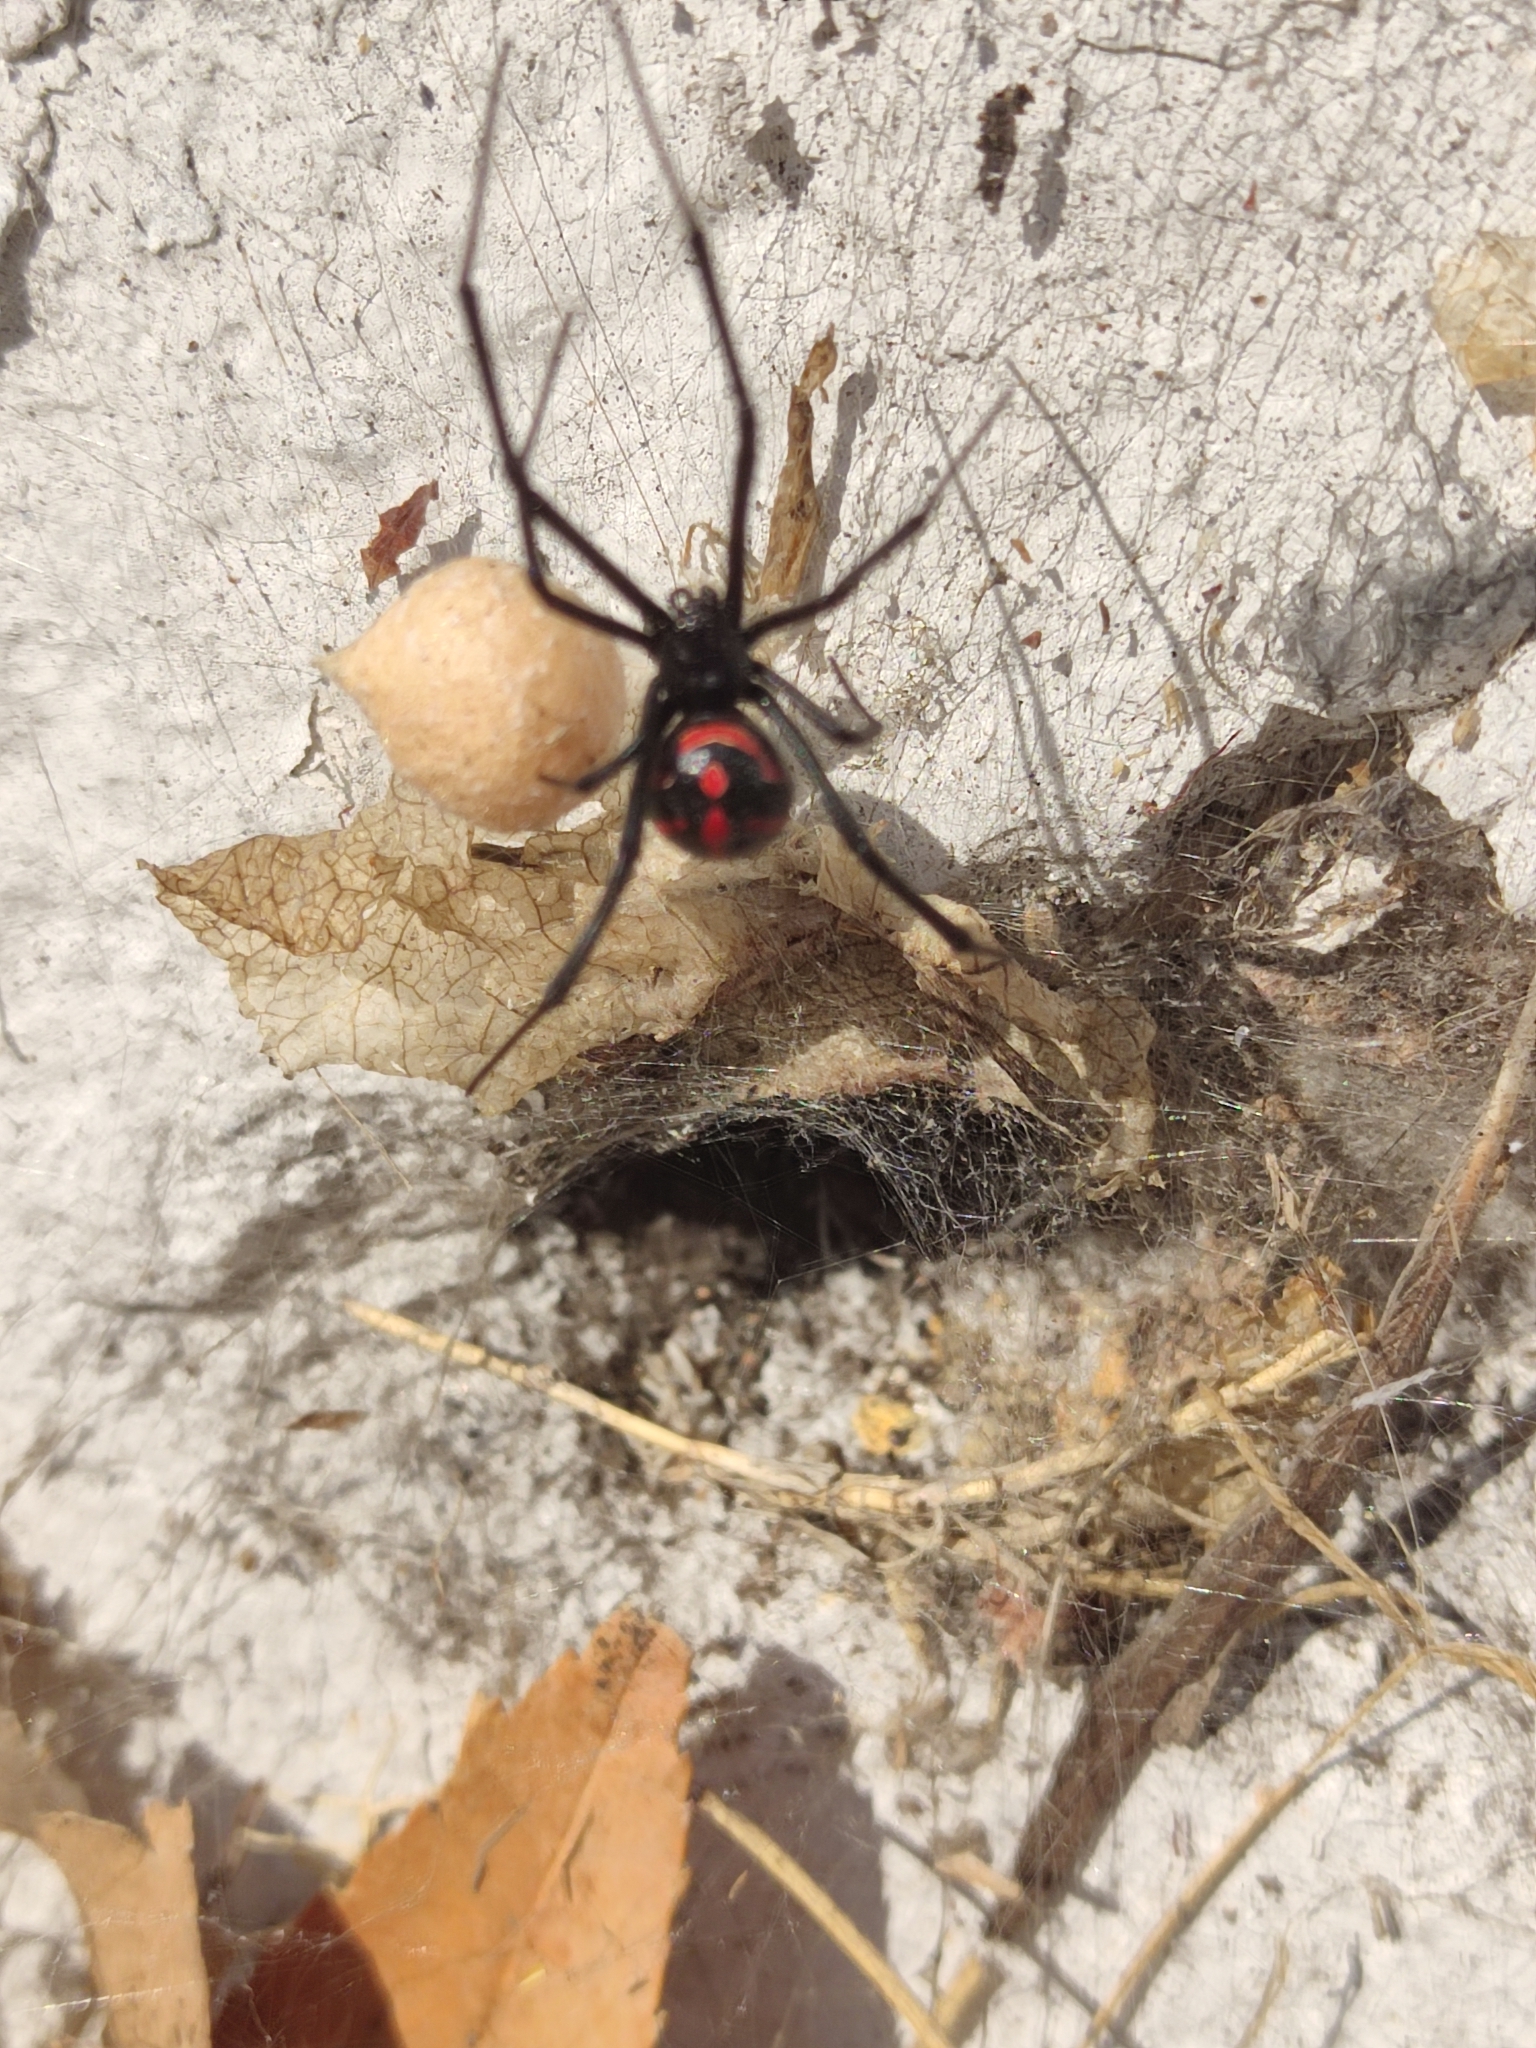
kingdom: Animalia
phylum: Arthropoda
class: Arachnida
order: Araneae
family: Theridiidae
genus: Latrodectus
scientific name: Latrodectus
